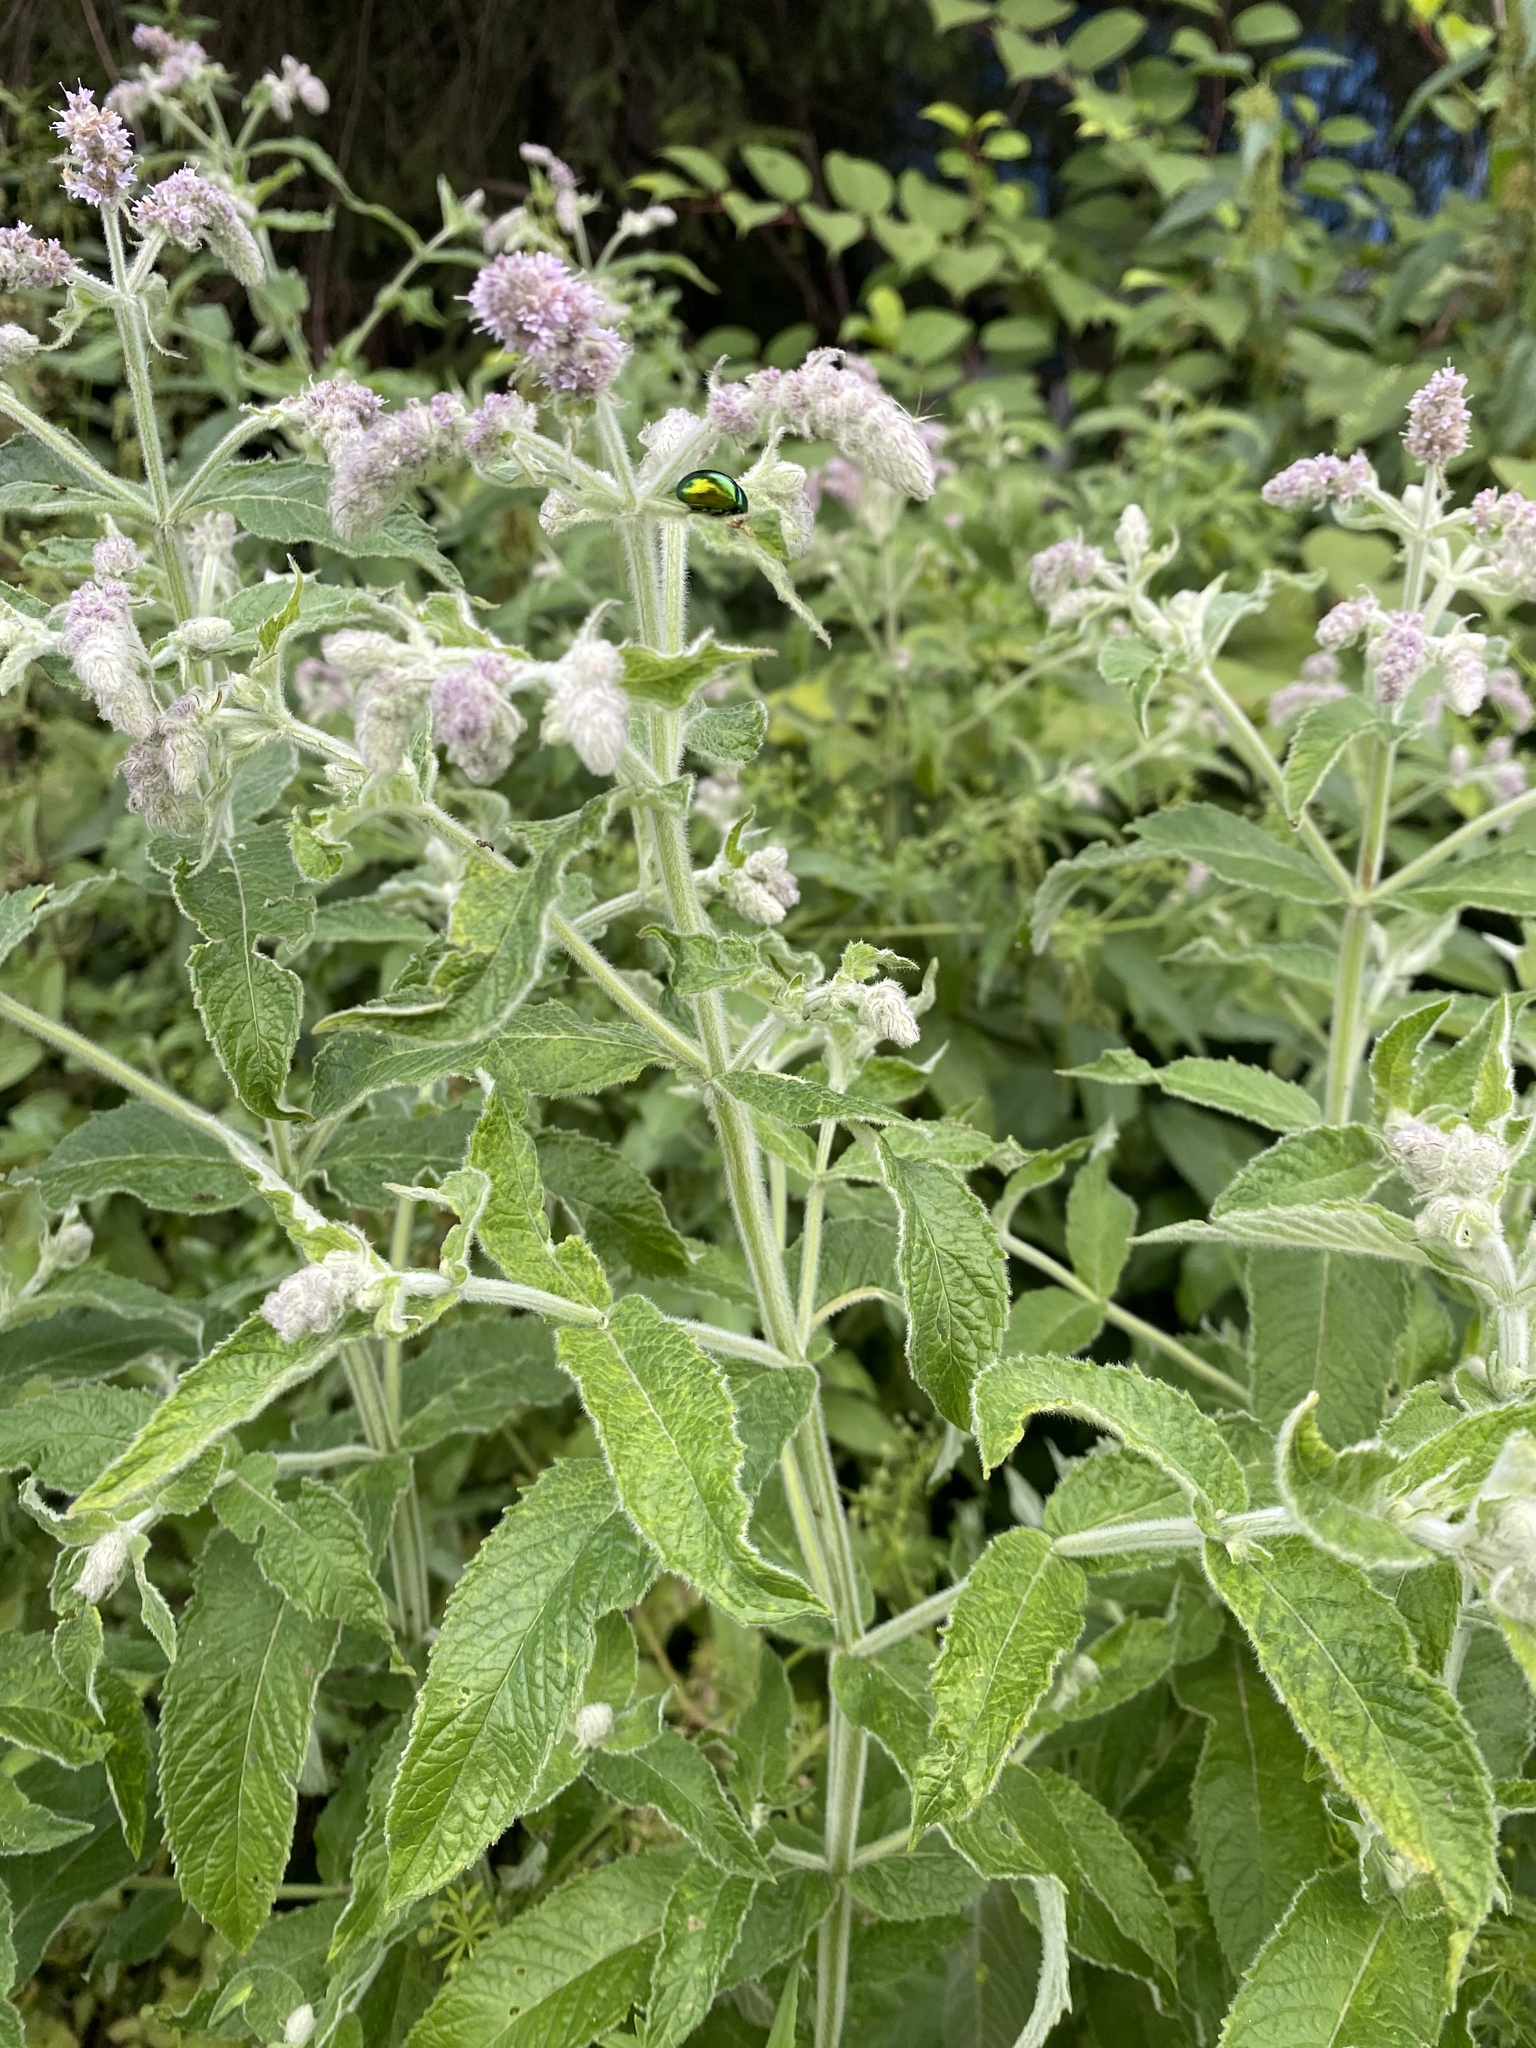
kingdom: Plantae
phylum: Tracheophyta
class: Magnoliopsida
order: Lamiales
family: Lamiaceae
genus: Mentha
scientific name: Mentha longifolia
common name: Horse mint
